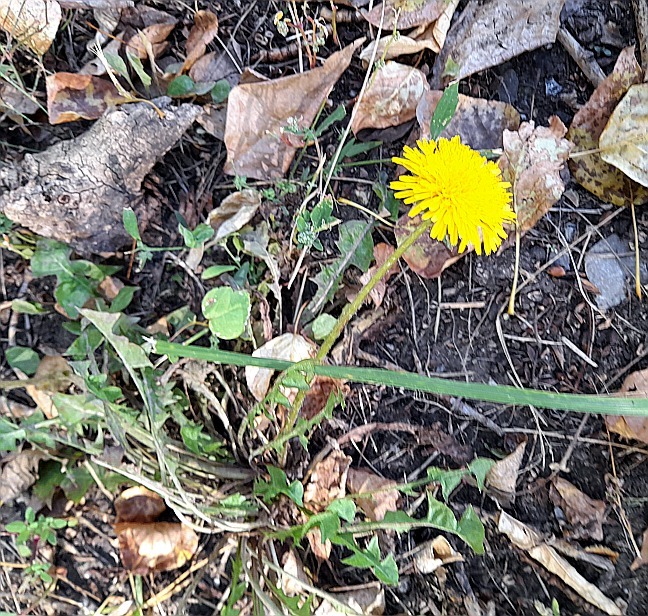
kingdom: Plantae
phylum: Tracheophyta
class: Magnoliopsida
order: Asterales
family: Asteraceae
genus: Taraxacum
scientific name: Taraxacum officinale
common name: Common dandelion
